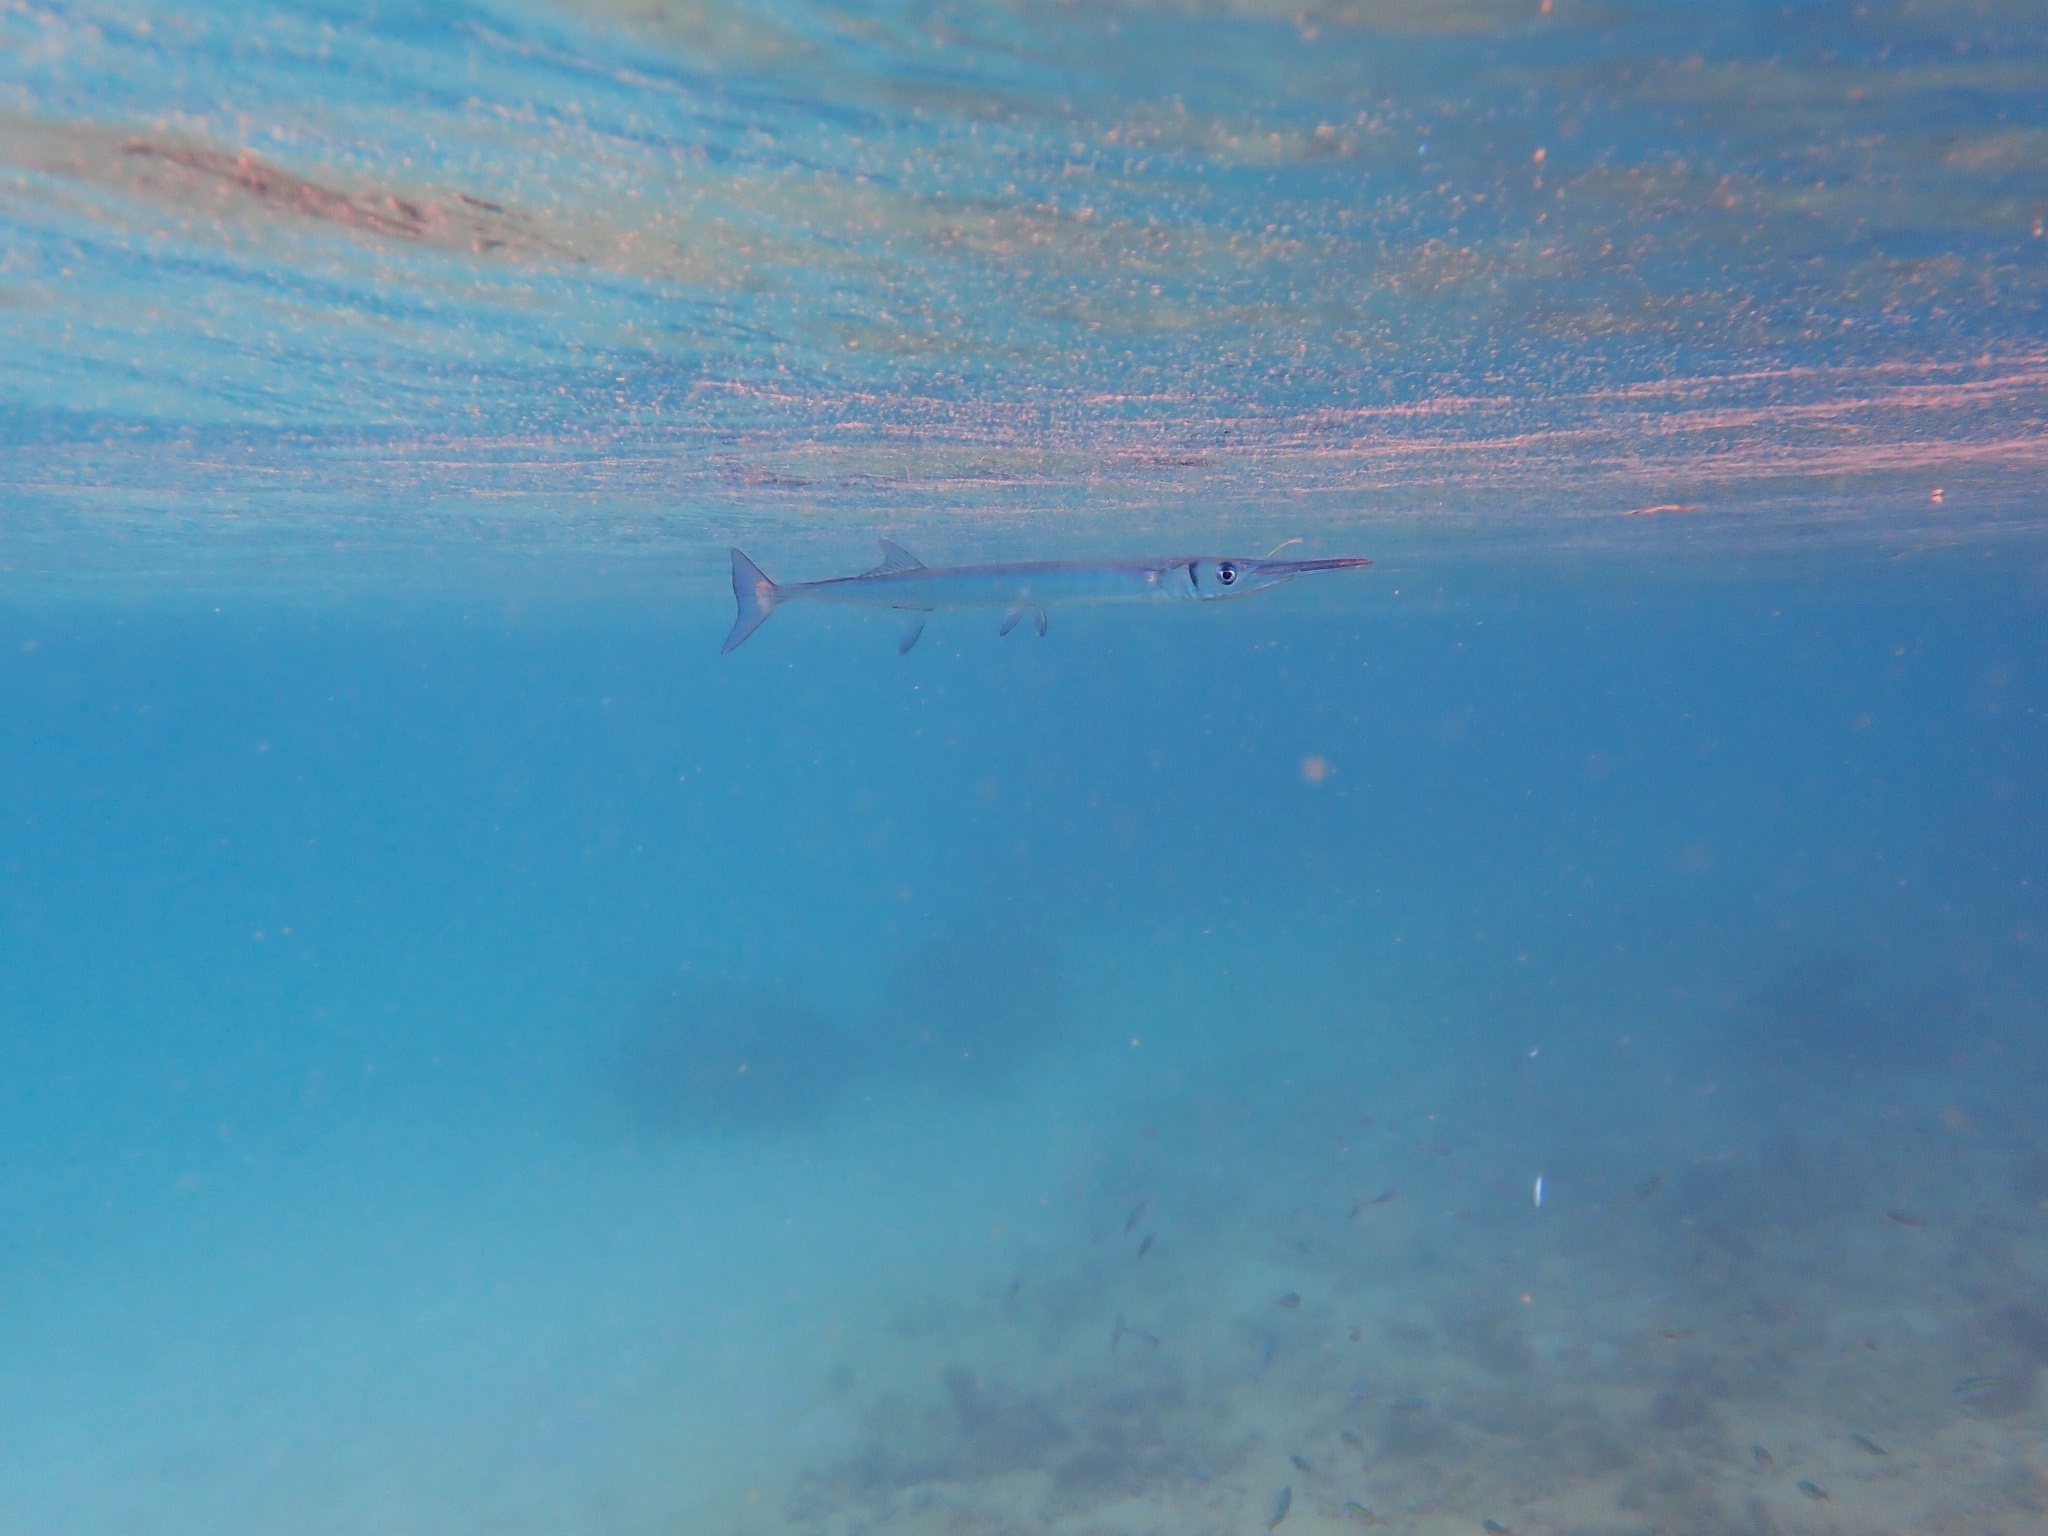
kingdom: Animalia
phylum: Chordata
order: Beloniformes
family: Belonidae
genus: Tylosurus
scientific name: Tylosurus crocodilus
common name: Houndfish
